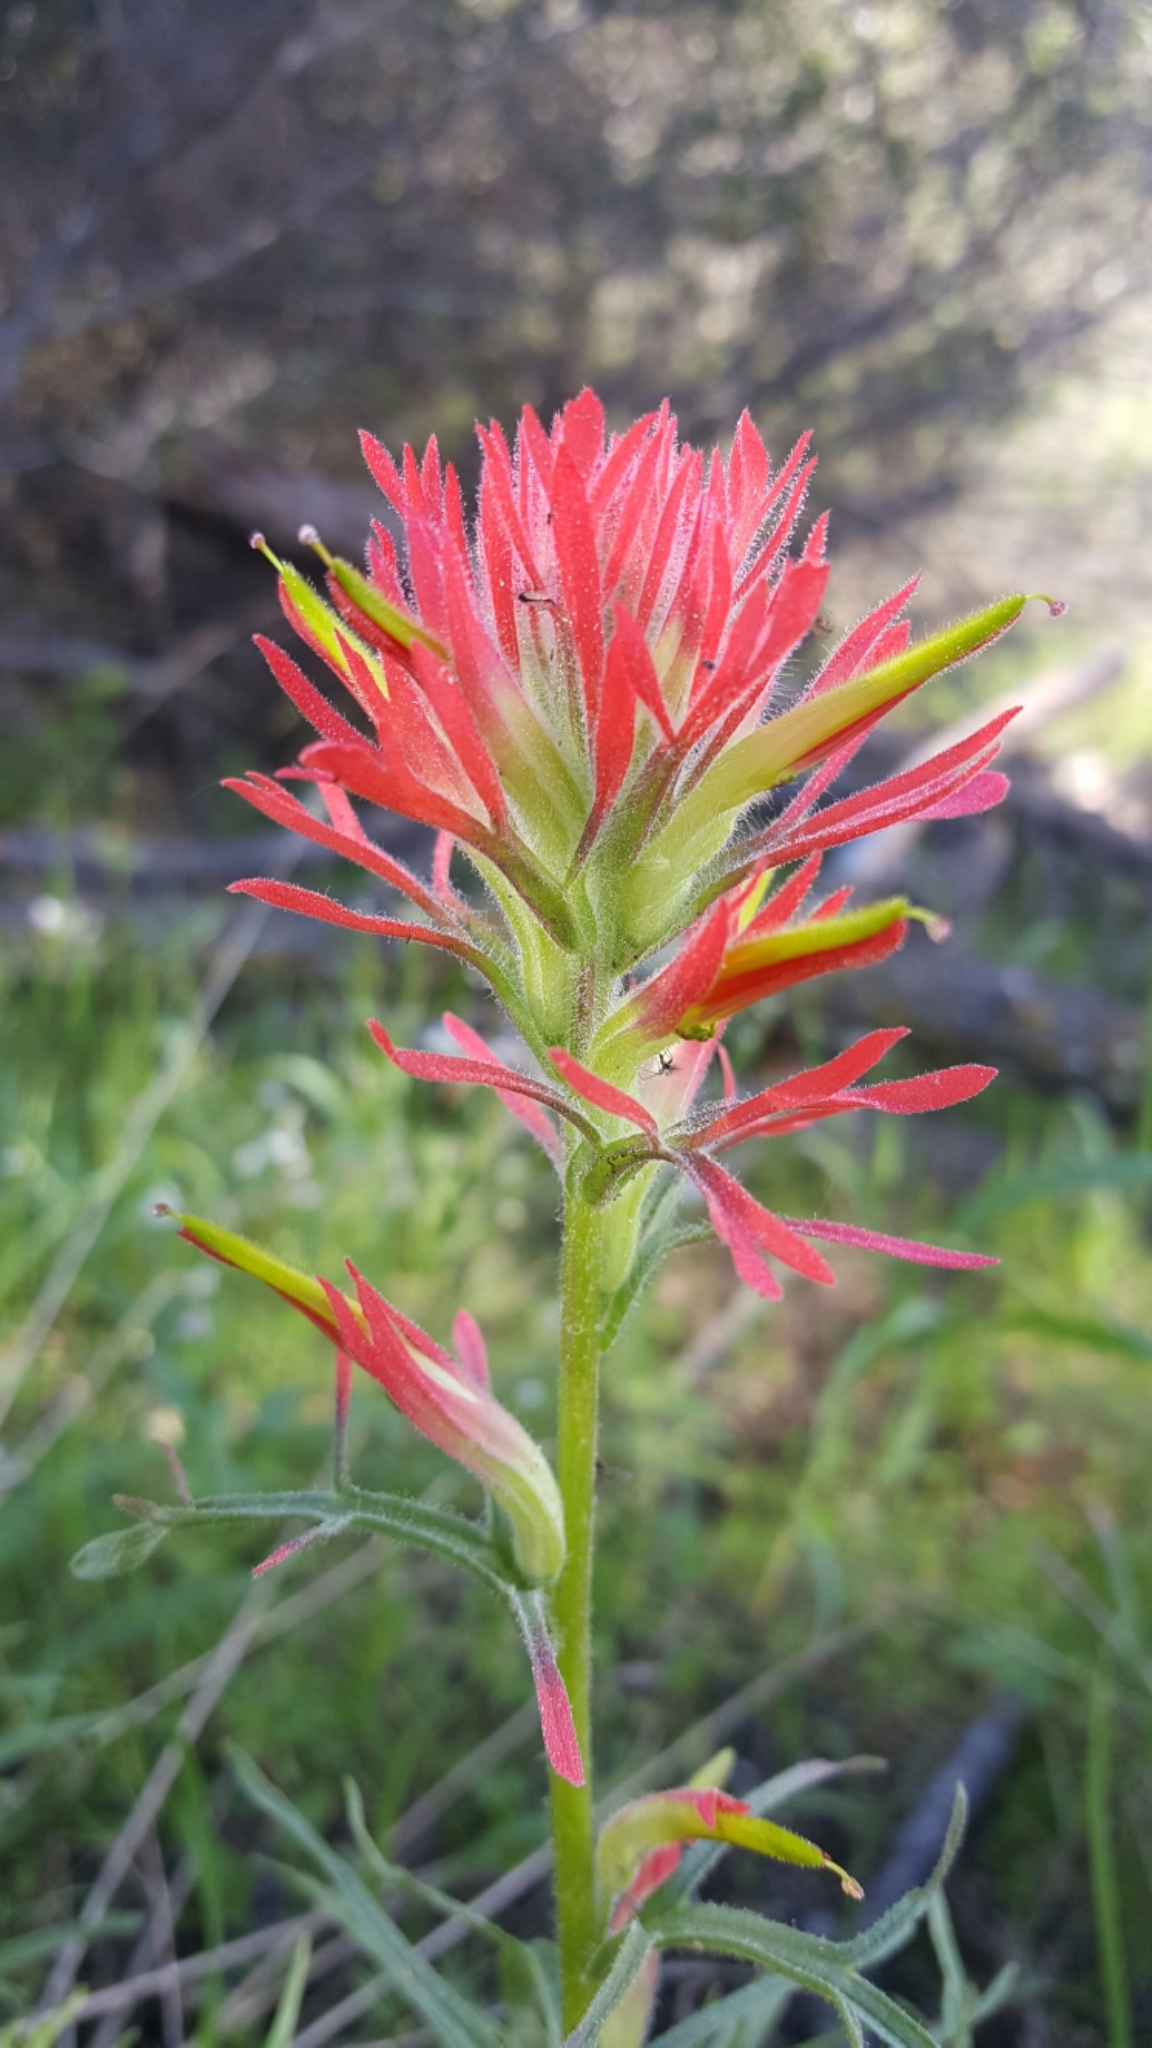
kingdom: Plantae
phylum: Tracheophyta
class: Magnoliopsida
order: Lamiales
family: Orobanchaceae
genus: Castilleja
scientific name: Castilleja affinis
